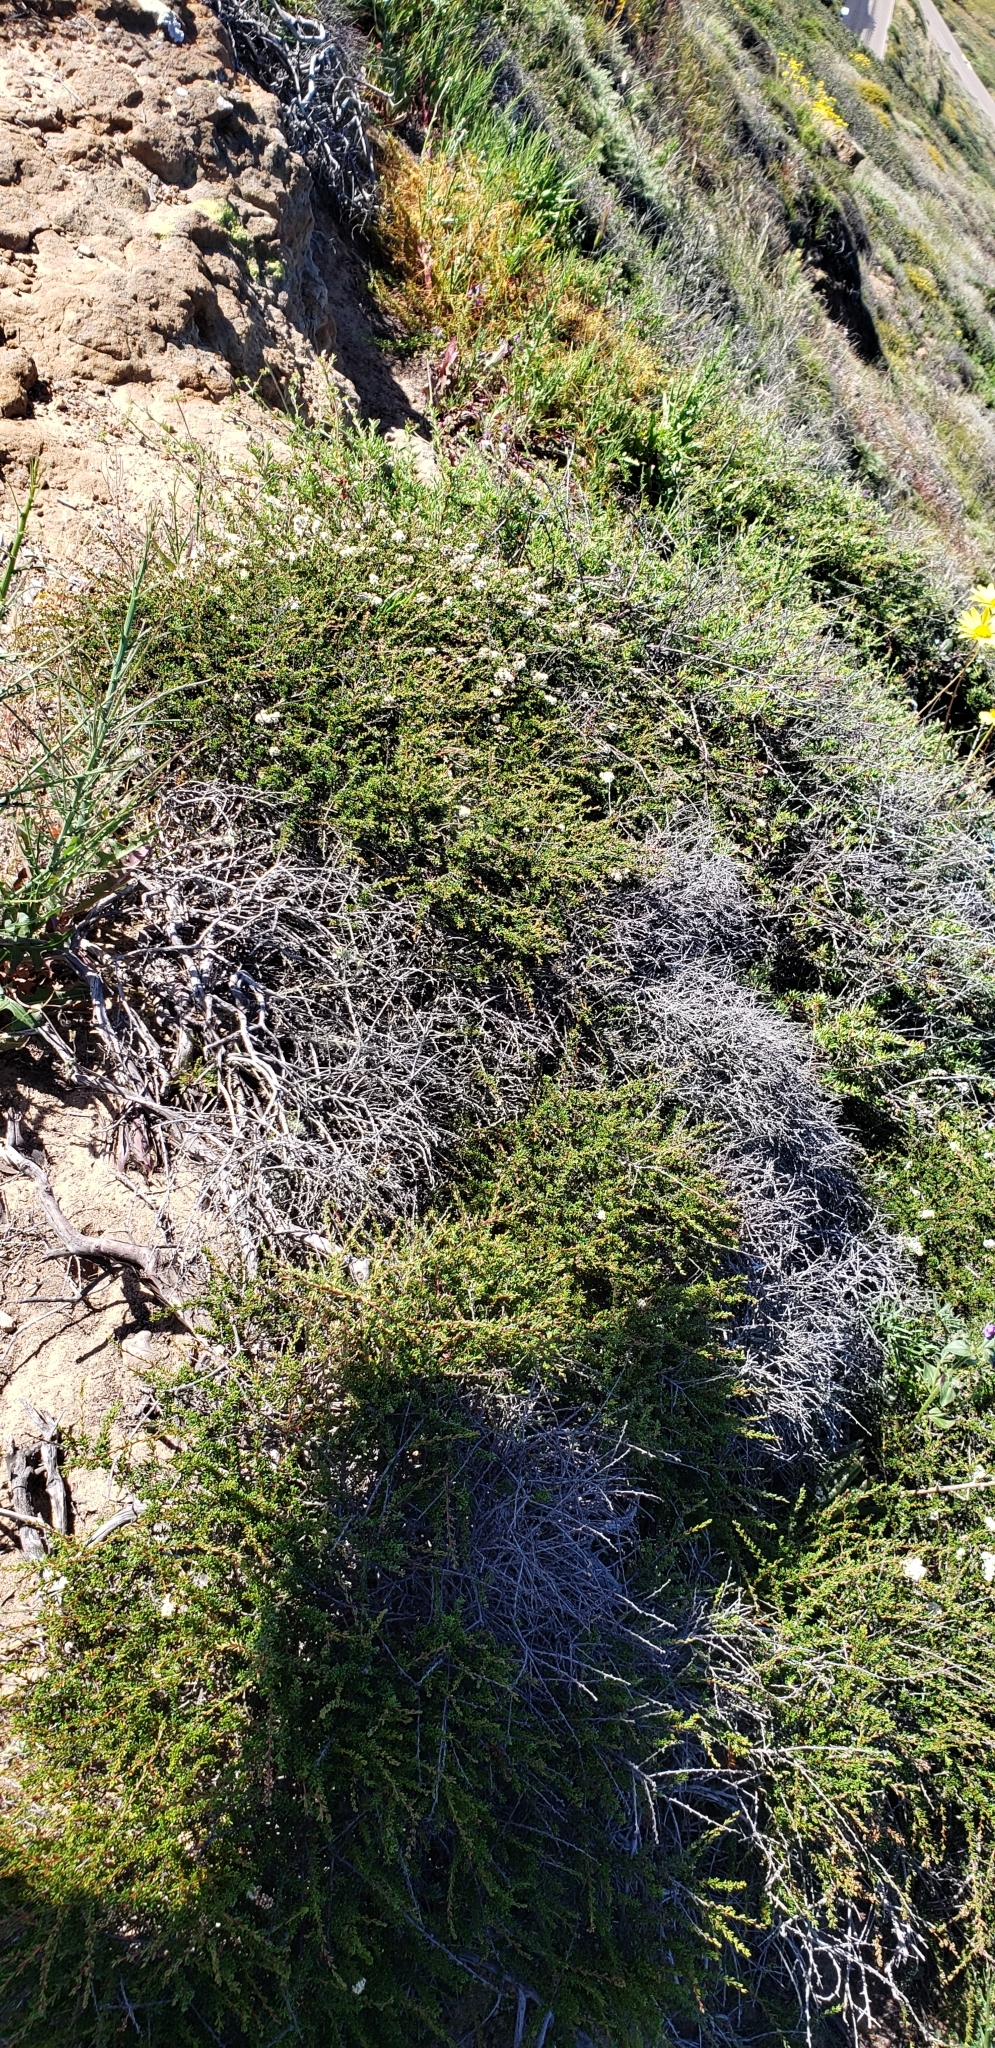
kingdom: Plantae
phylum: Tracheophyta
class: Magnoliopsida
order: Rosales
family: Rosaceae
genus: Adenostoma
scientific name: Adenostoma fasciculatum
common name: Chamise
